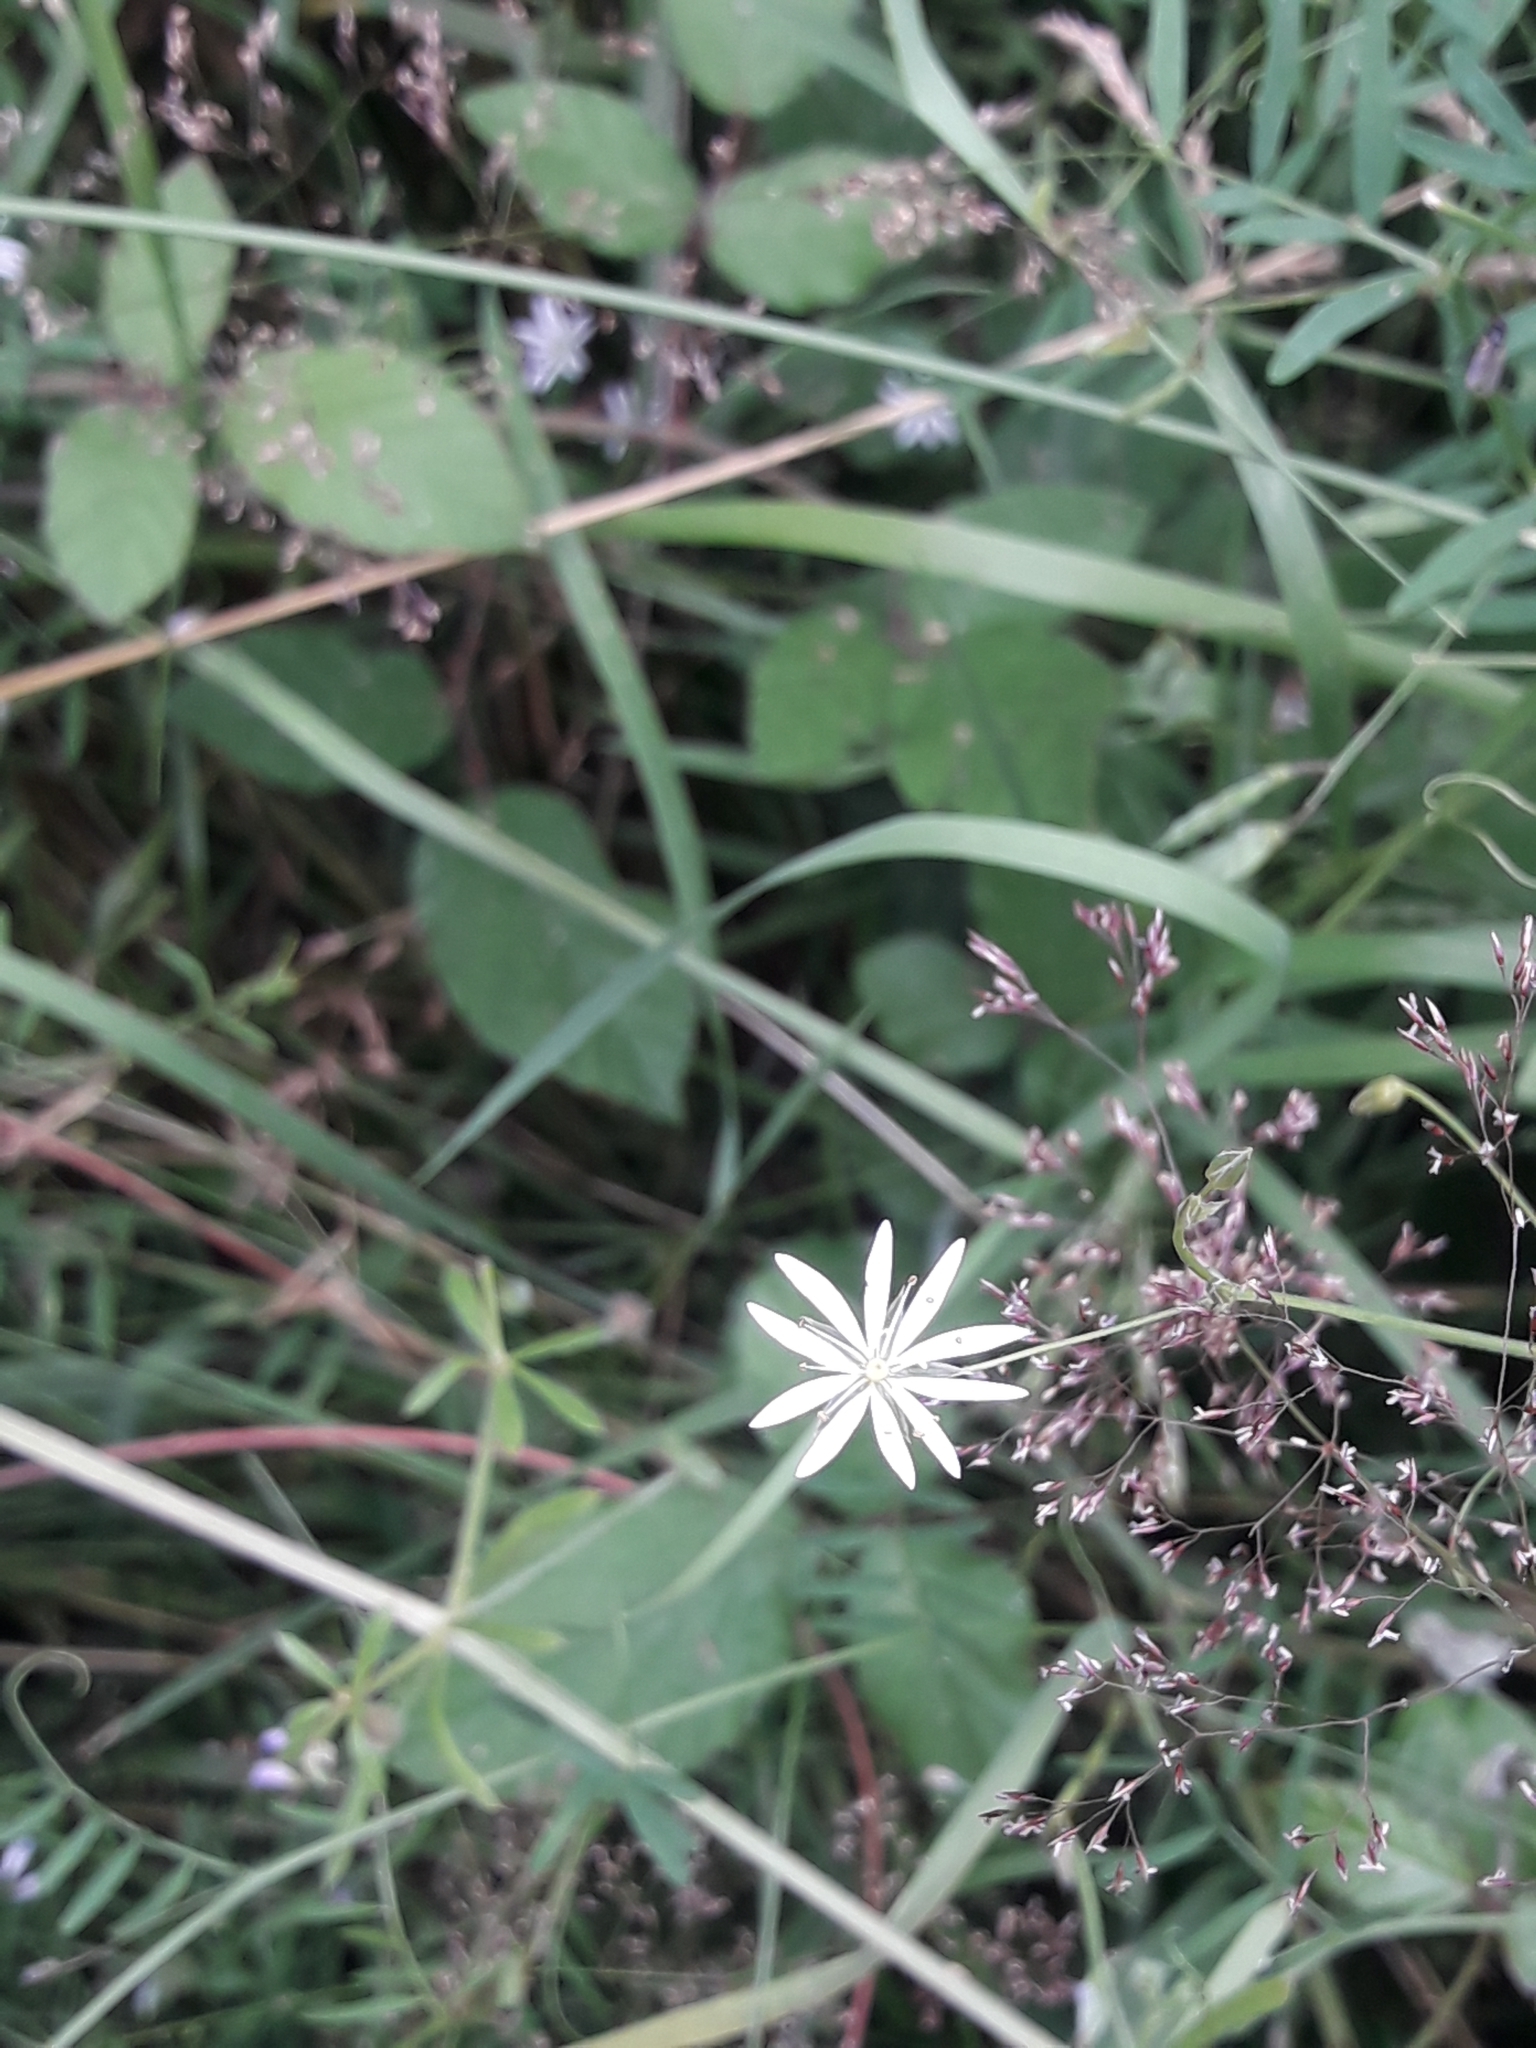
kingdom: Plantae
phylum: Tracheophyta
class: Magnoliopsida
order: Caryophyllales
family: Caryophyllaceae
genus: Stellaria
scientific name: Stellaria graminea
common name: Grass-like starwort
